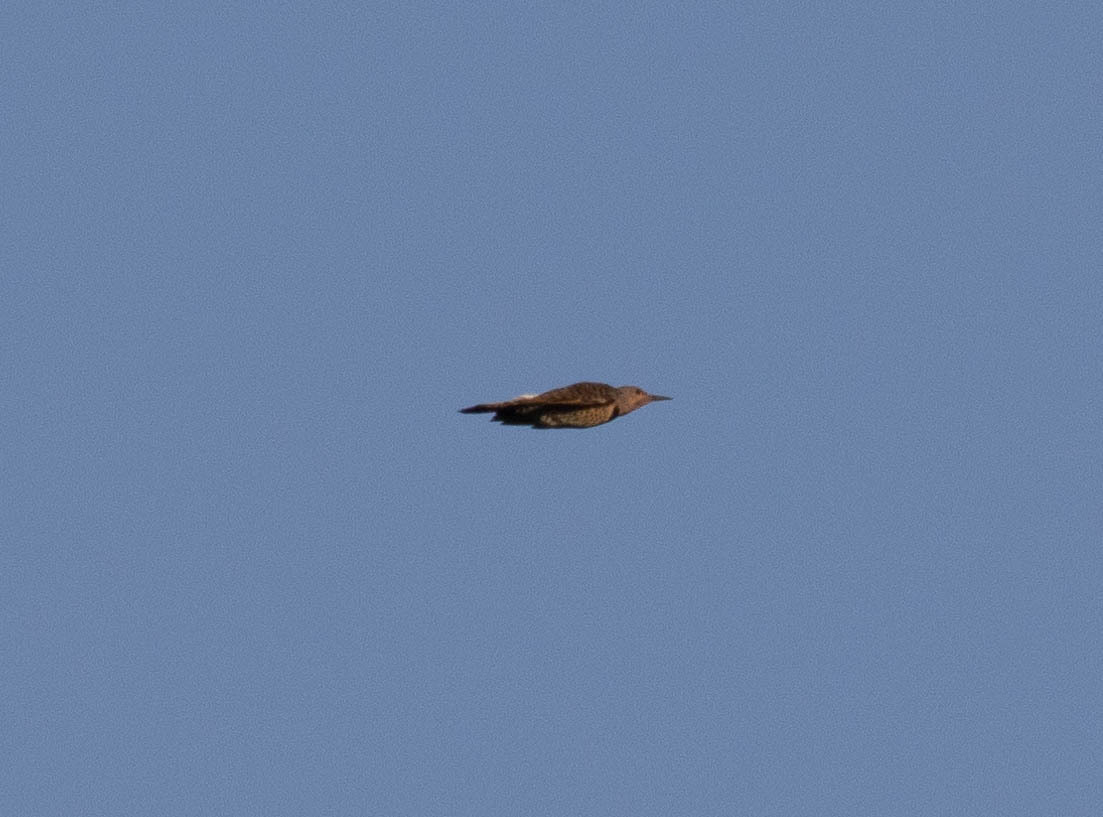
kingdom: Animalia
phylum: Chordata
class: Aves
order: Piciformes
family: Picidae
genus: Colaptes
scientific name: Colaptes auratus
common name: Northern flicker
